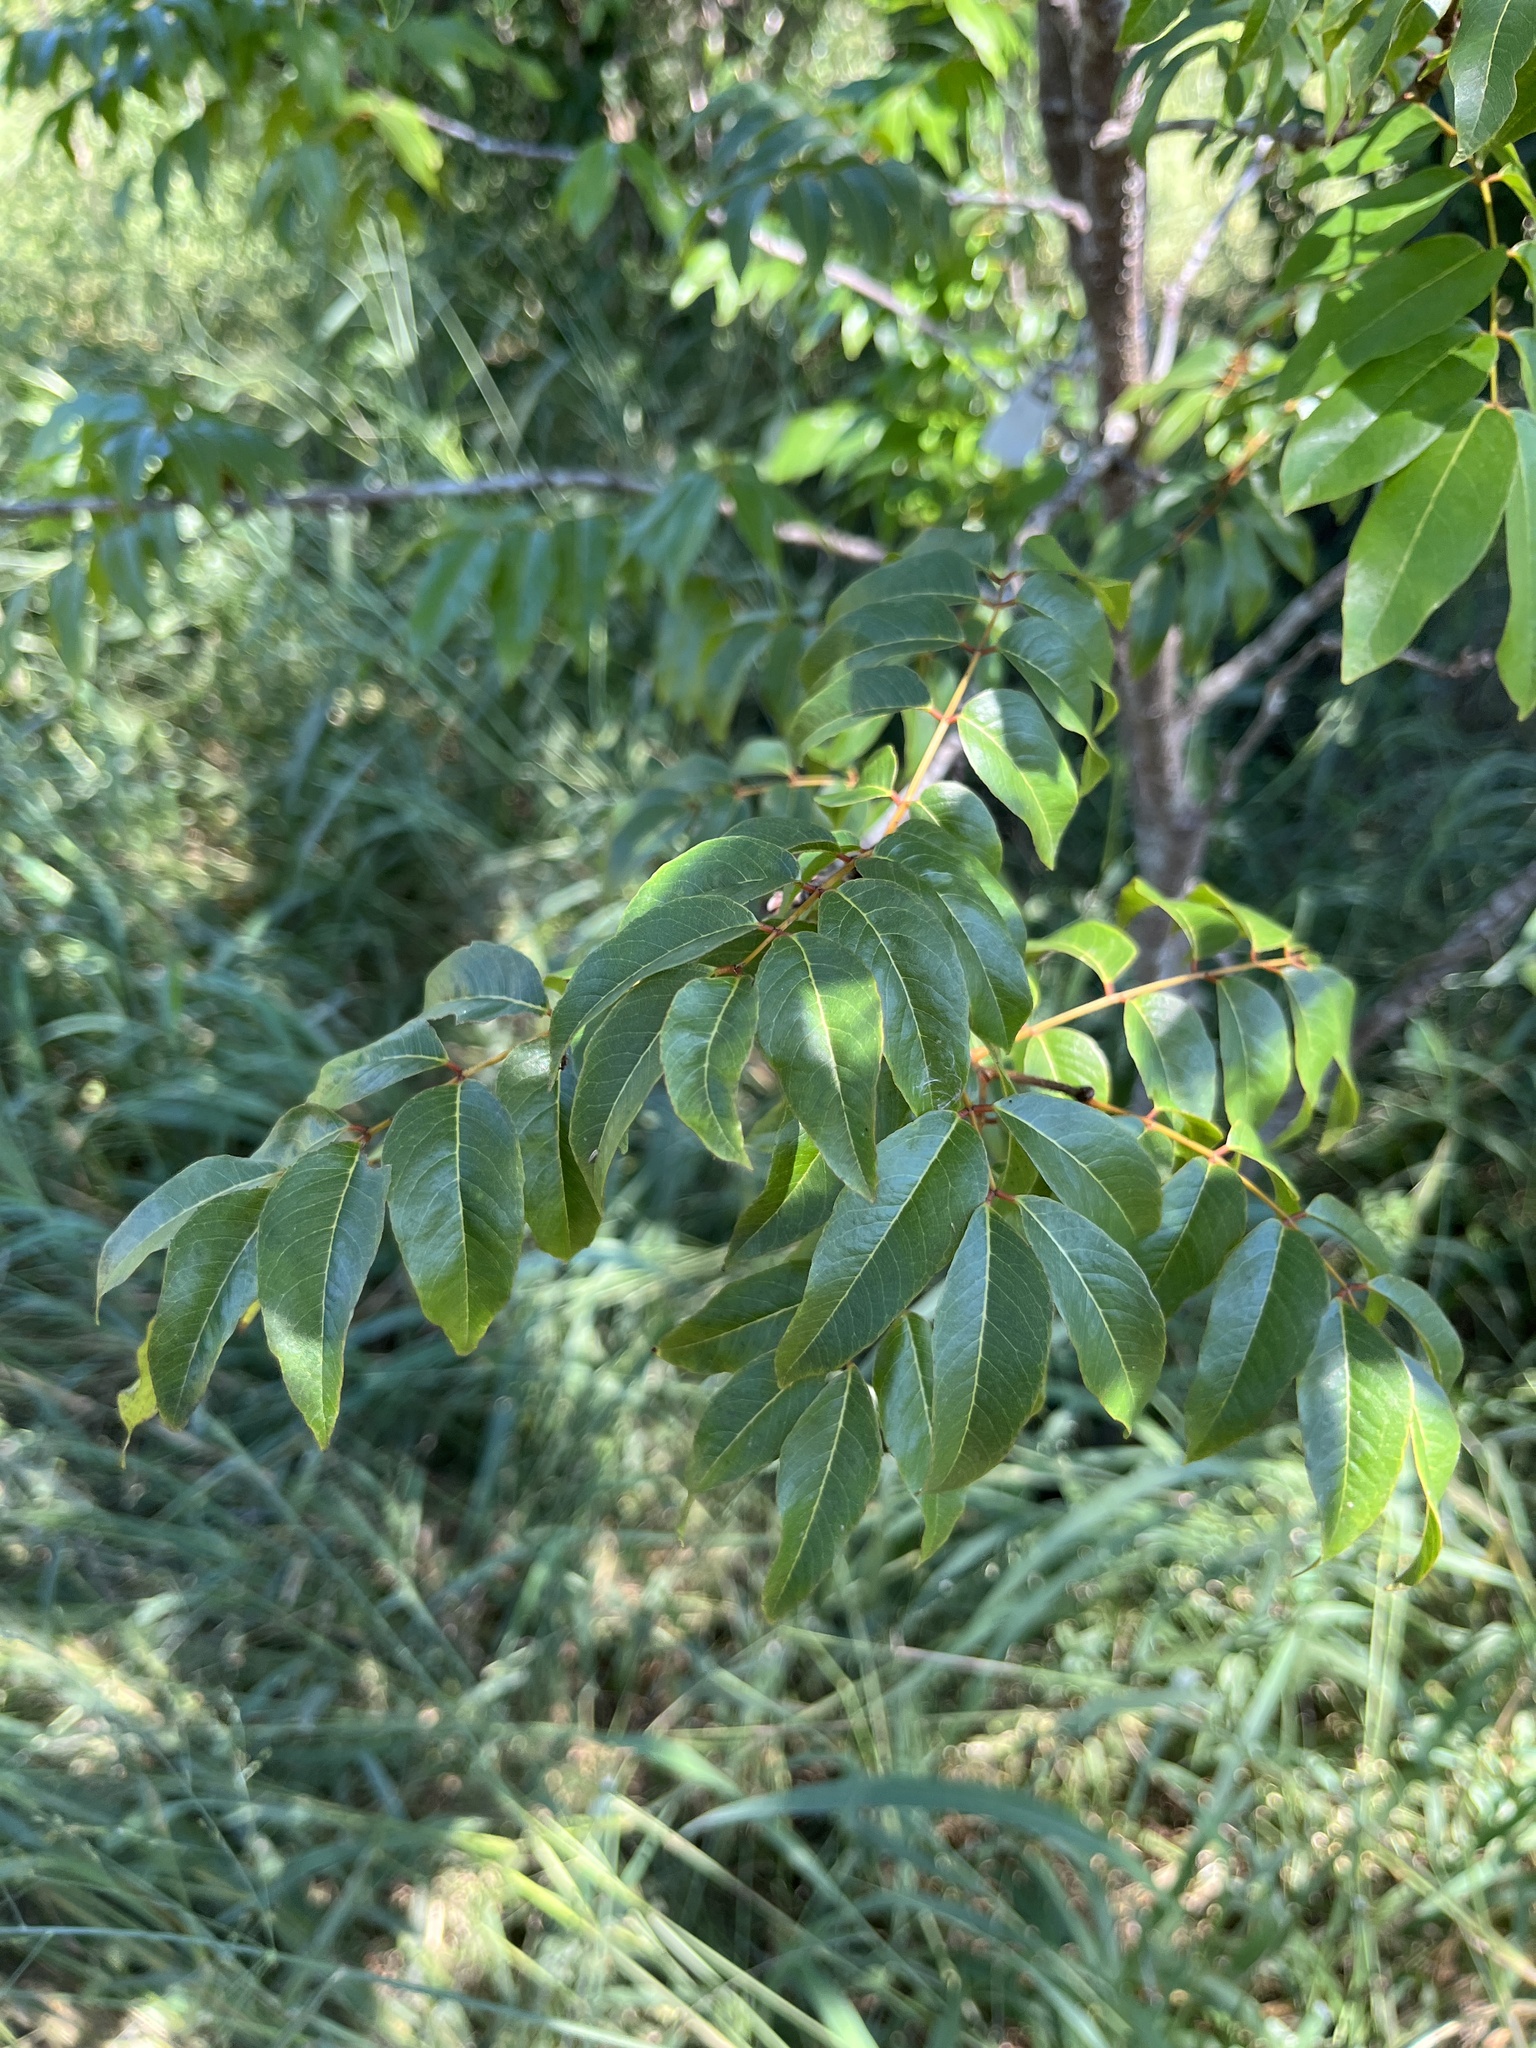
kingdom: Plantae
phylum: Tracheophyta
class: Magnoliopsida
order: Fabales
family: Fabaceae
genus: Libidibia
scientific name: Libidibia monosperma
